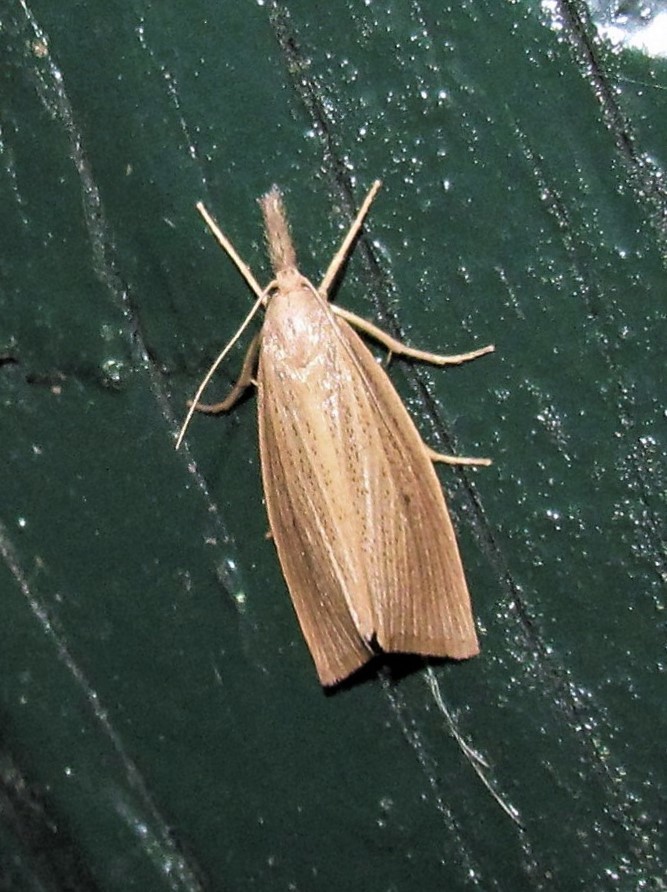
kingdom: Animalia
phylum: Arthropoda
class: Insecta
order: Lepidoptera
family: Crambidae
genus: Diatraea
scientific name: Diatraea saccharalis
